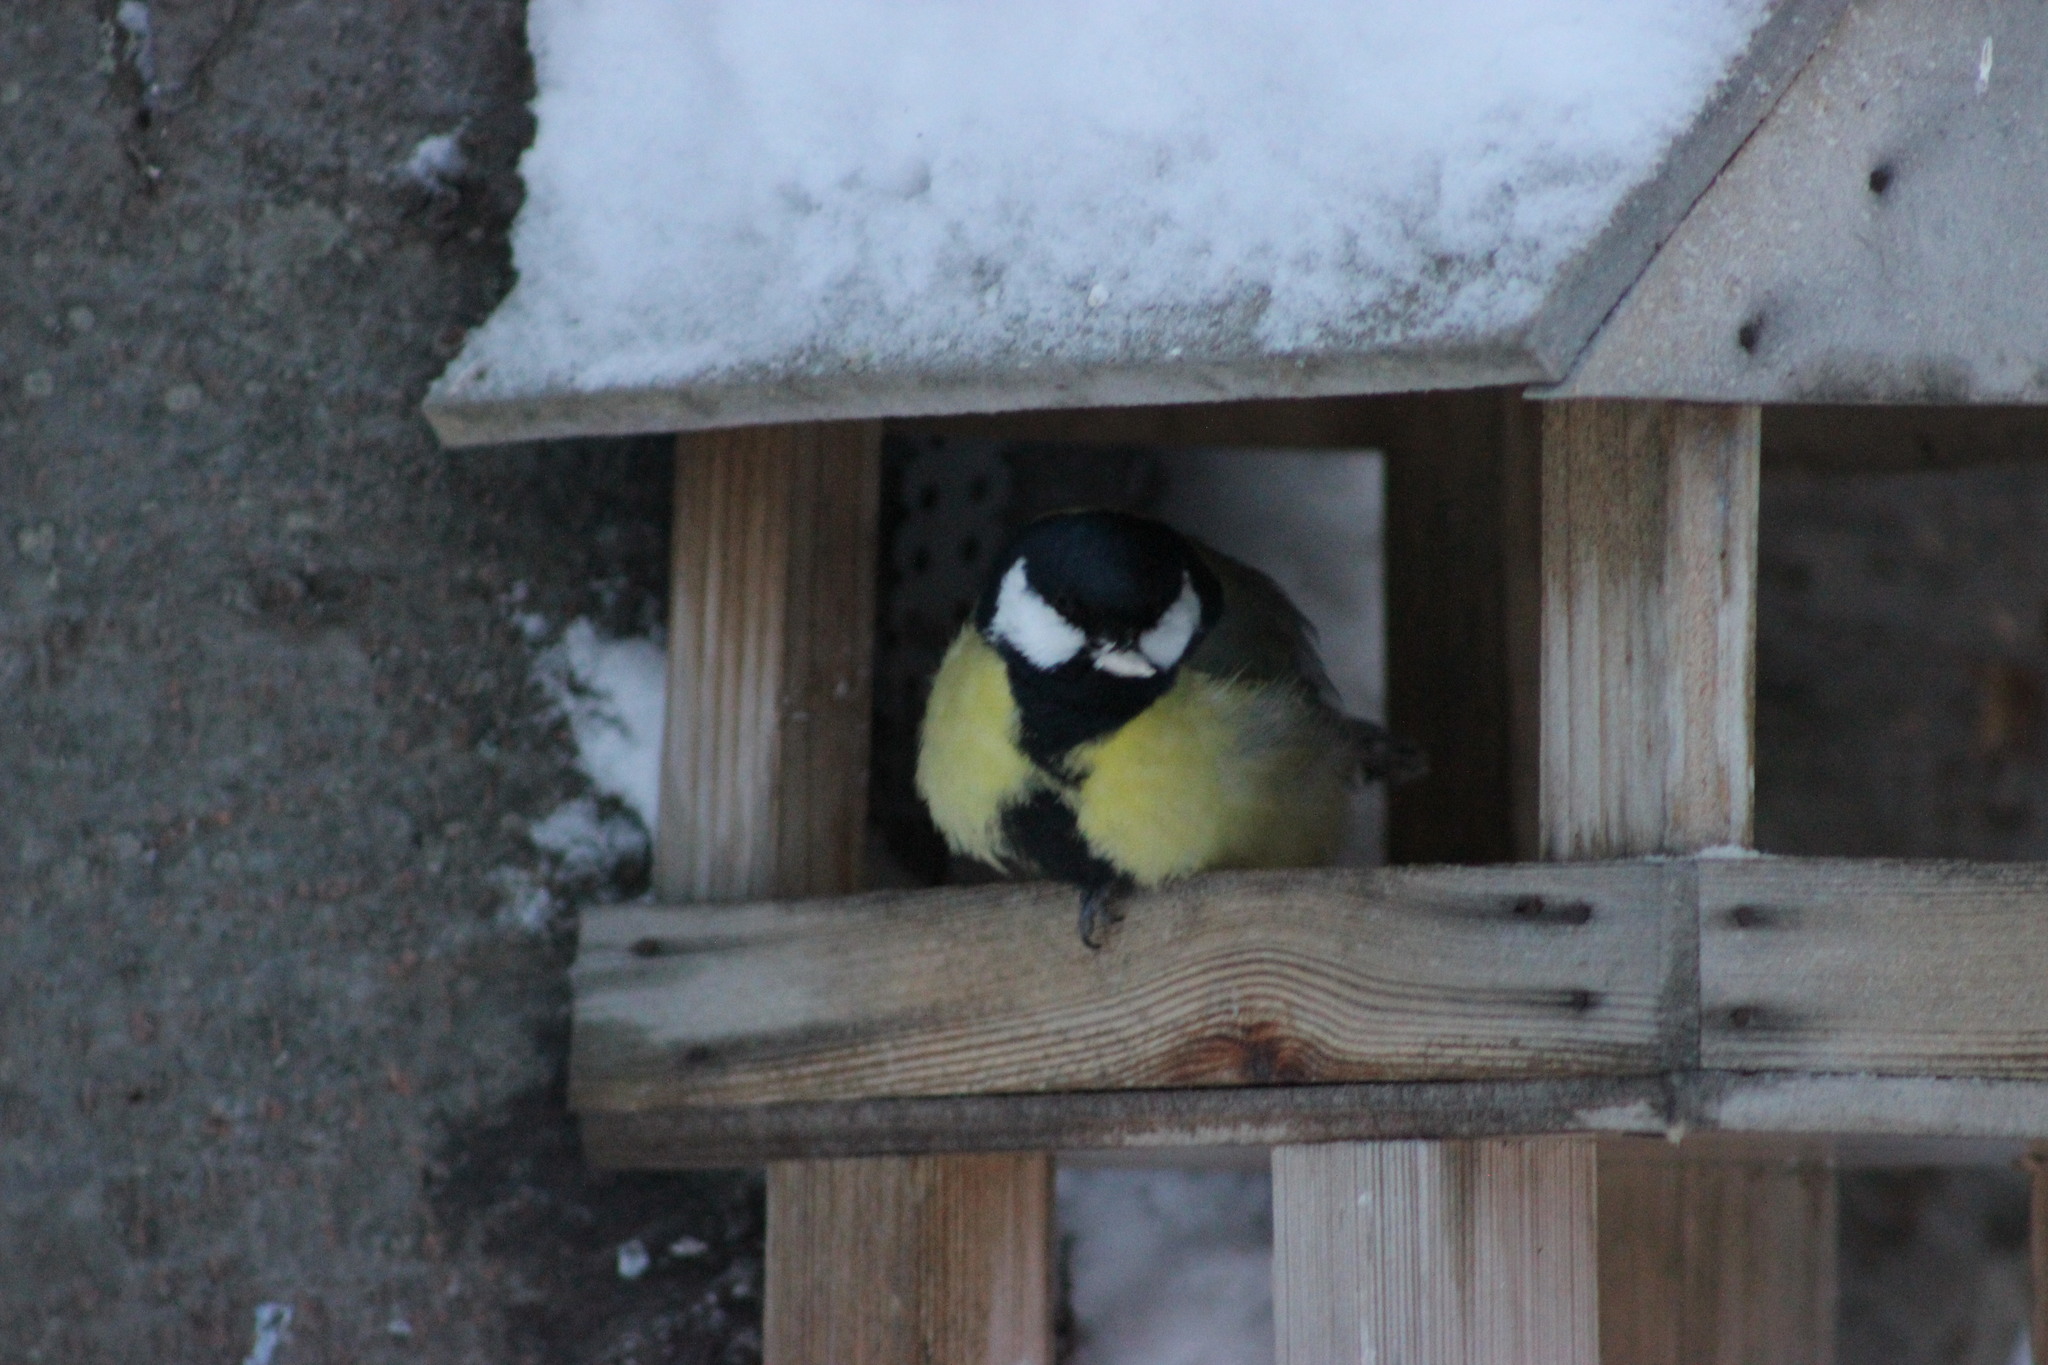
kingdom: Animalia
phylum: Chordata
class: Aves
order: Passeriformes
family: Paridae
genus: Parus
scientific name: Parus major
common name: Great tit
